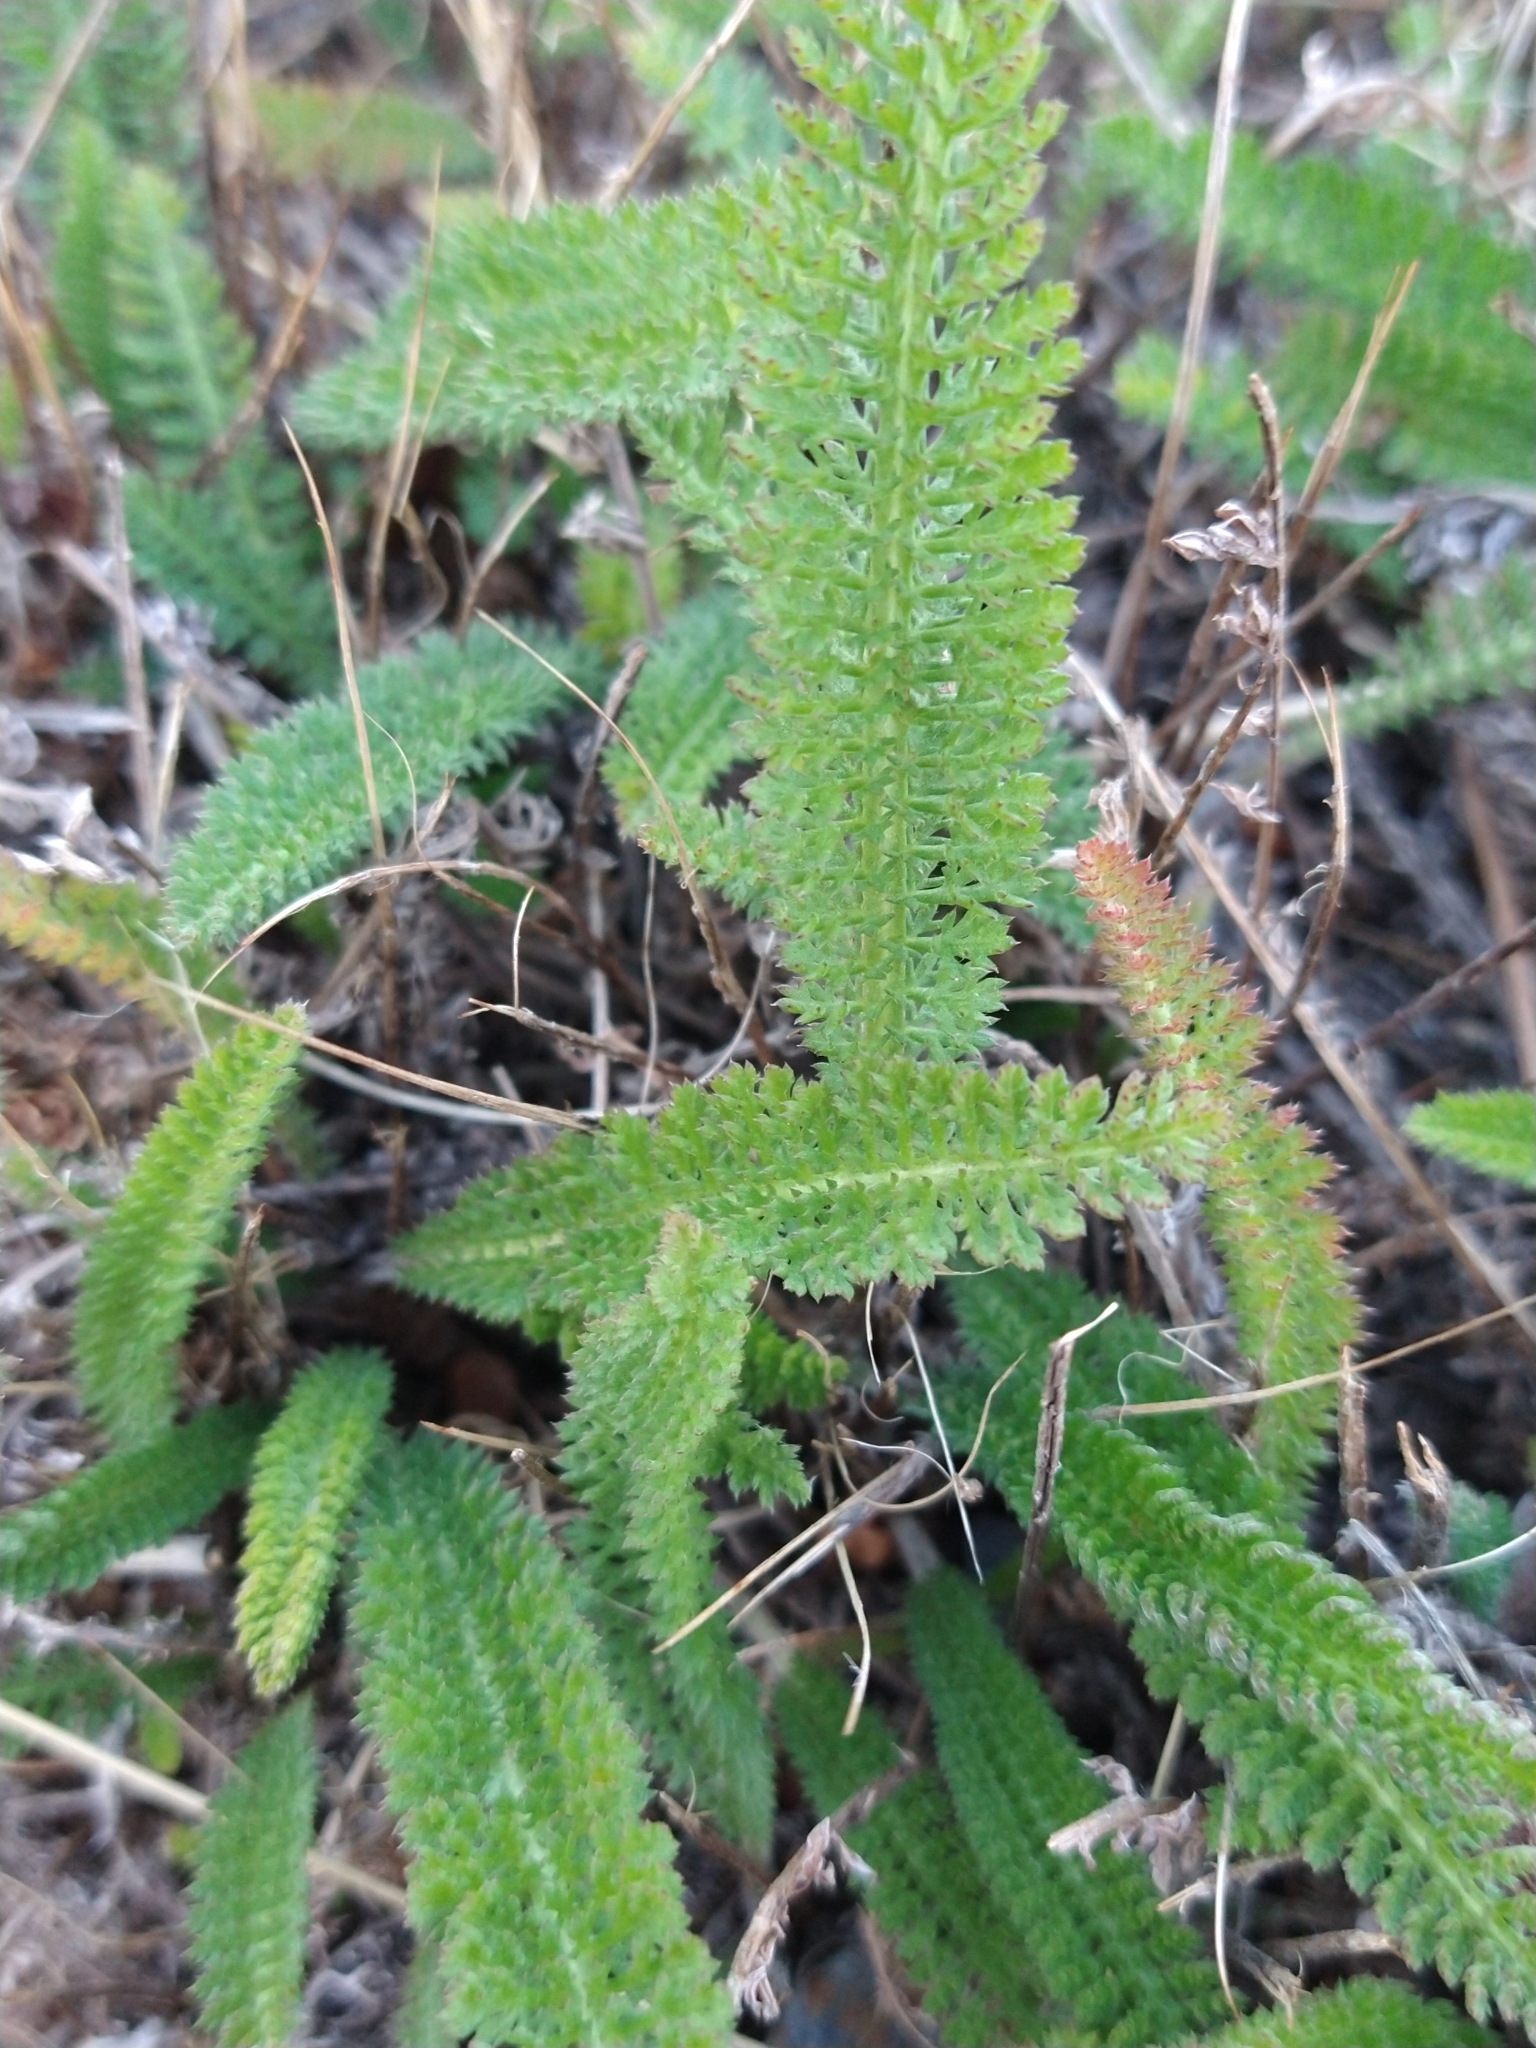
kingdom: Plantae
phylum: Tracheophyta
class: Magnoliopsida
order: Asterales
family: Asteraceae
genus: Achillea
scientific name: Achillea millefolium
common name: Yarrow
